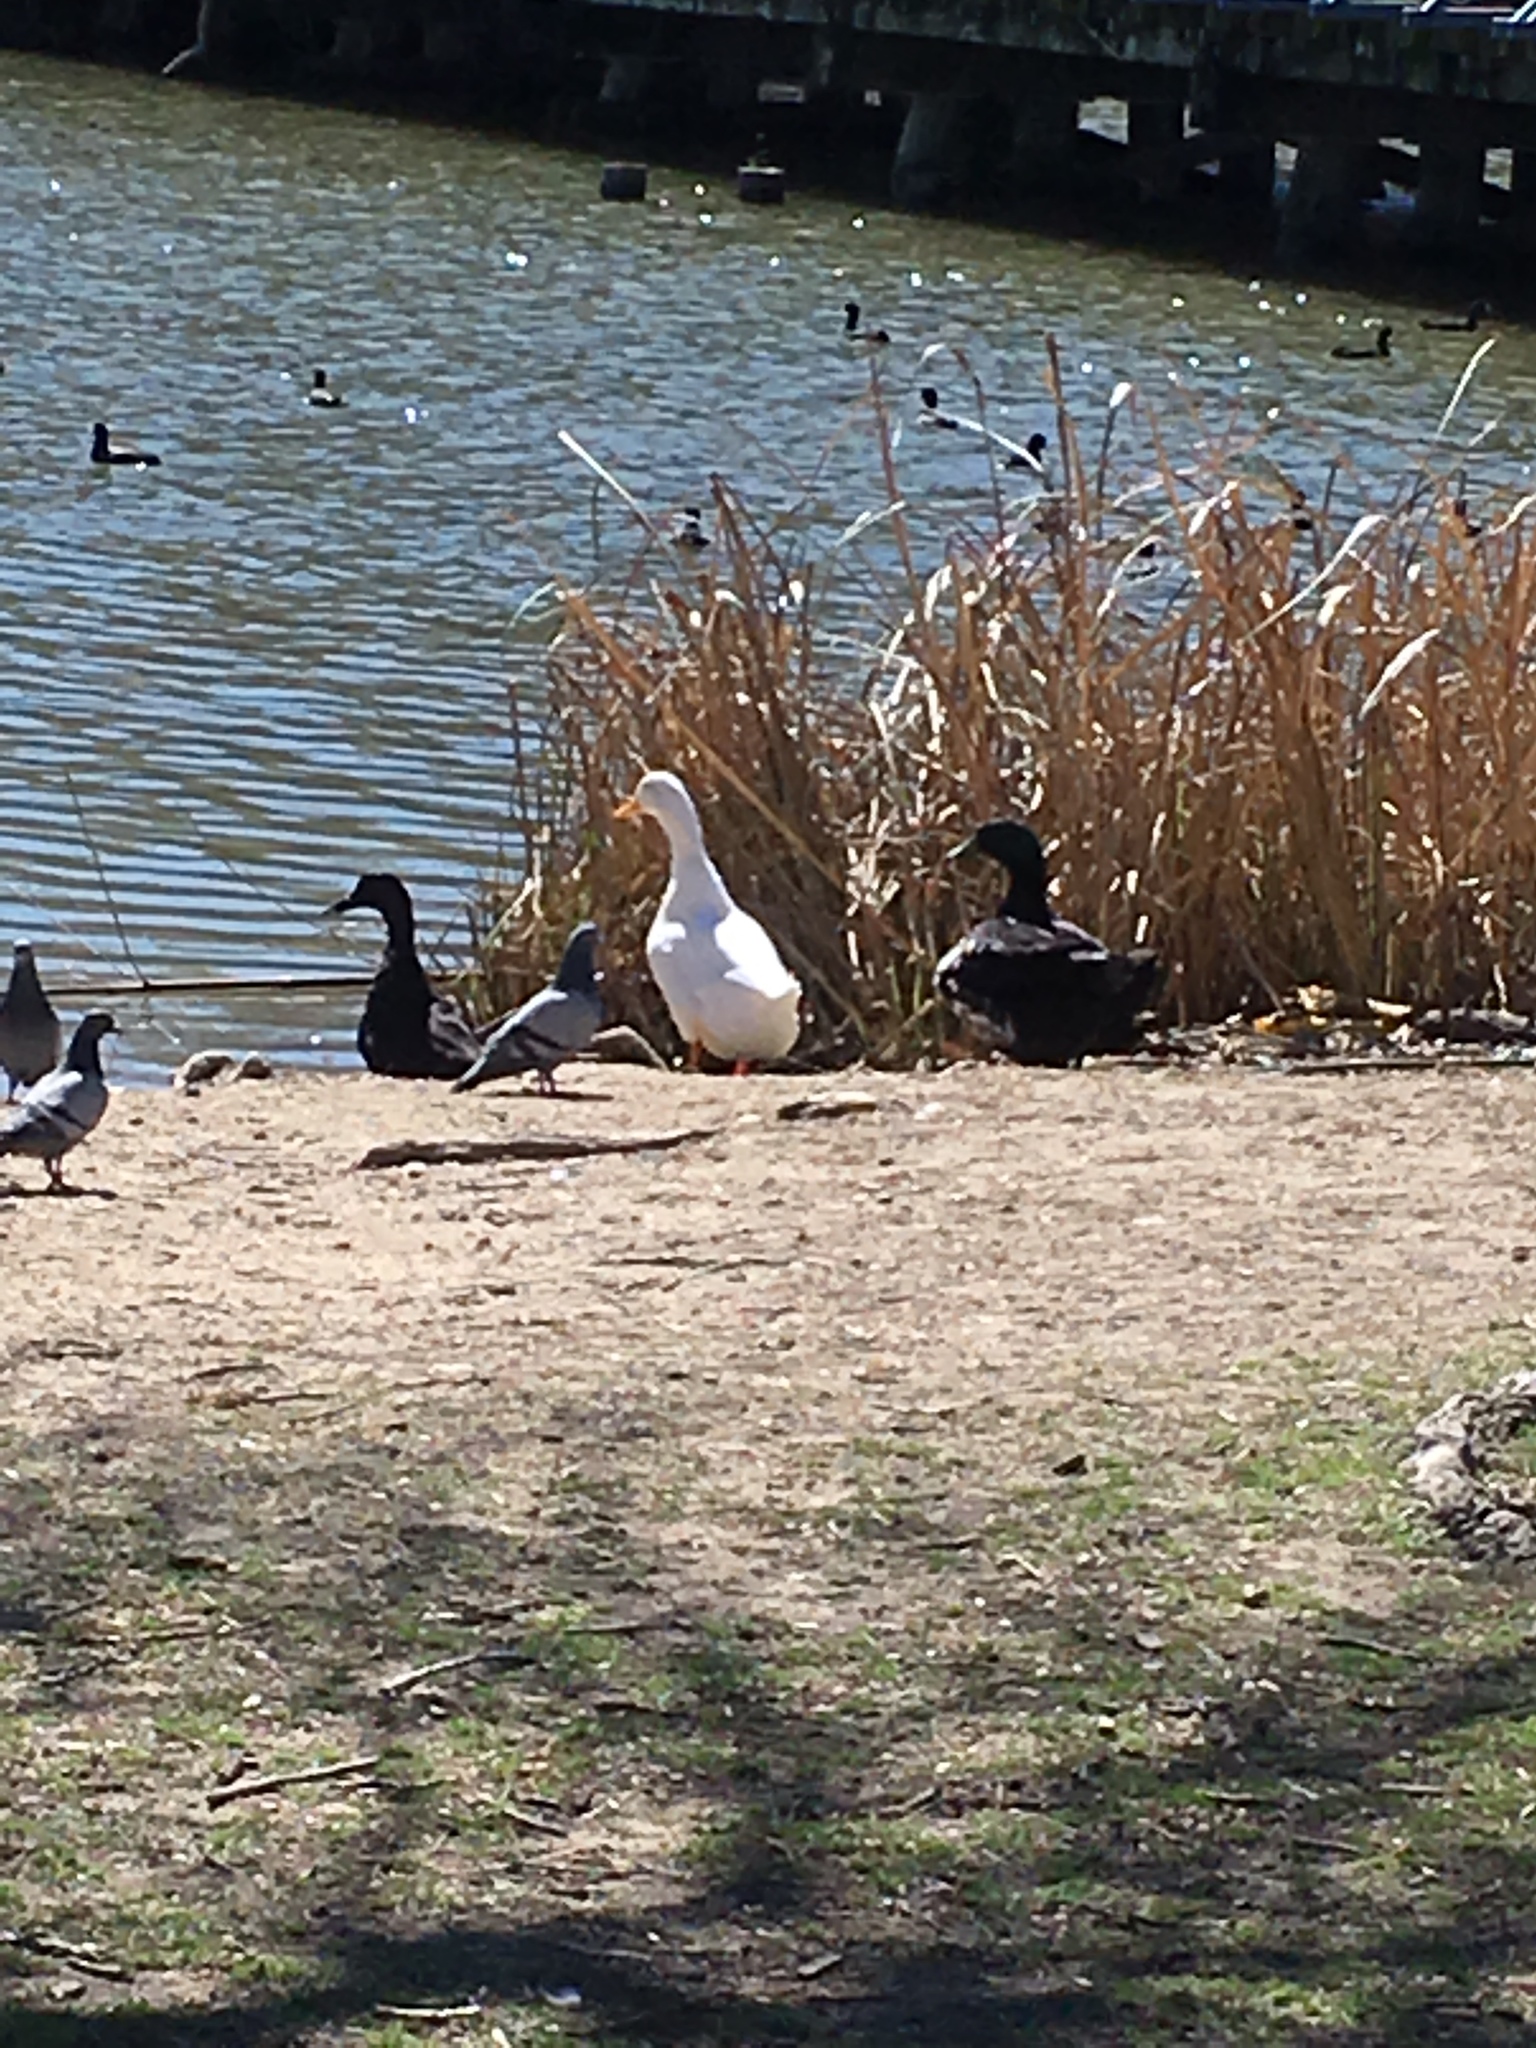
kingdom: Animalia
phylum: Chordata
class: Aves
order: Anseriformes
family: Anatidae
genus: Anas
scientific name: Anas platyrhynchos
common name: Mallard
